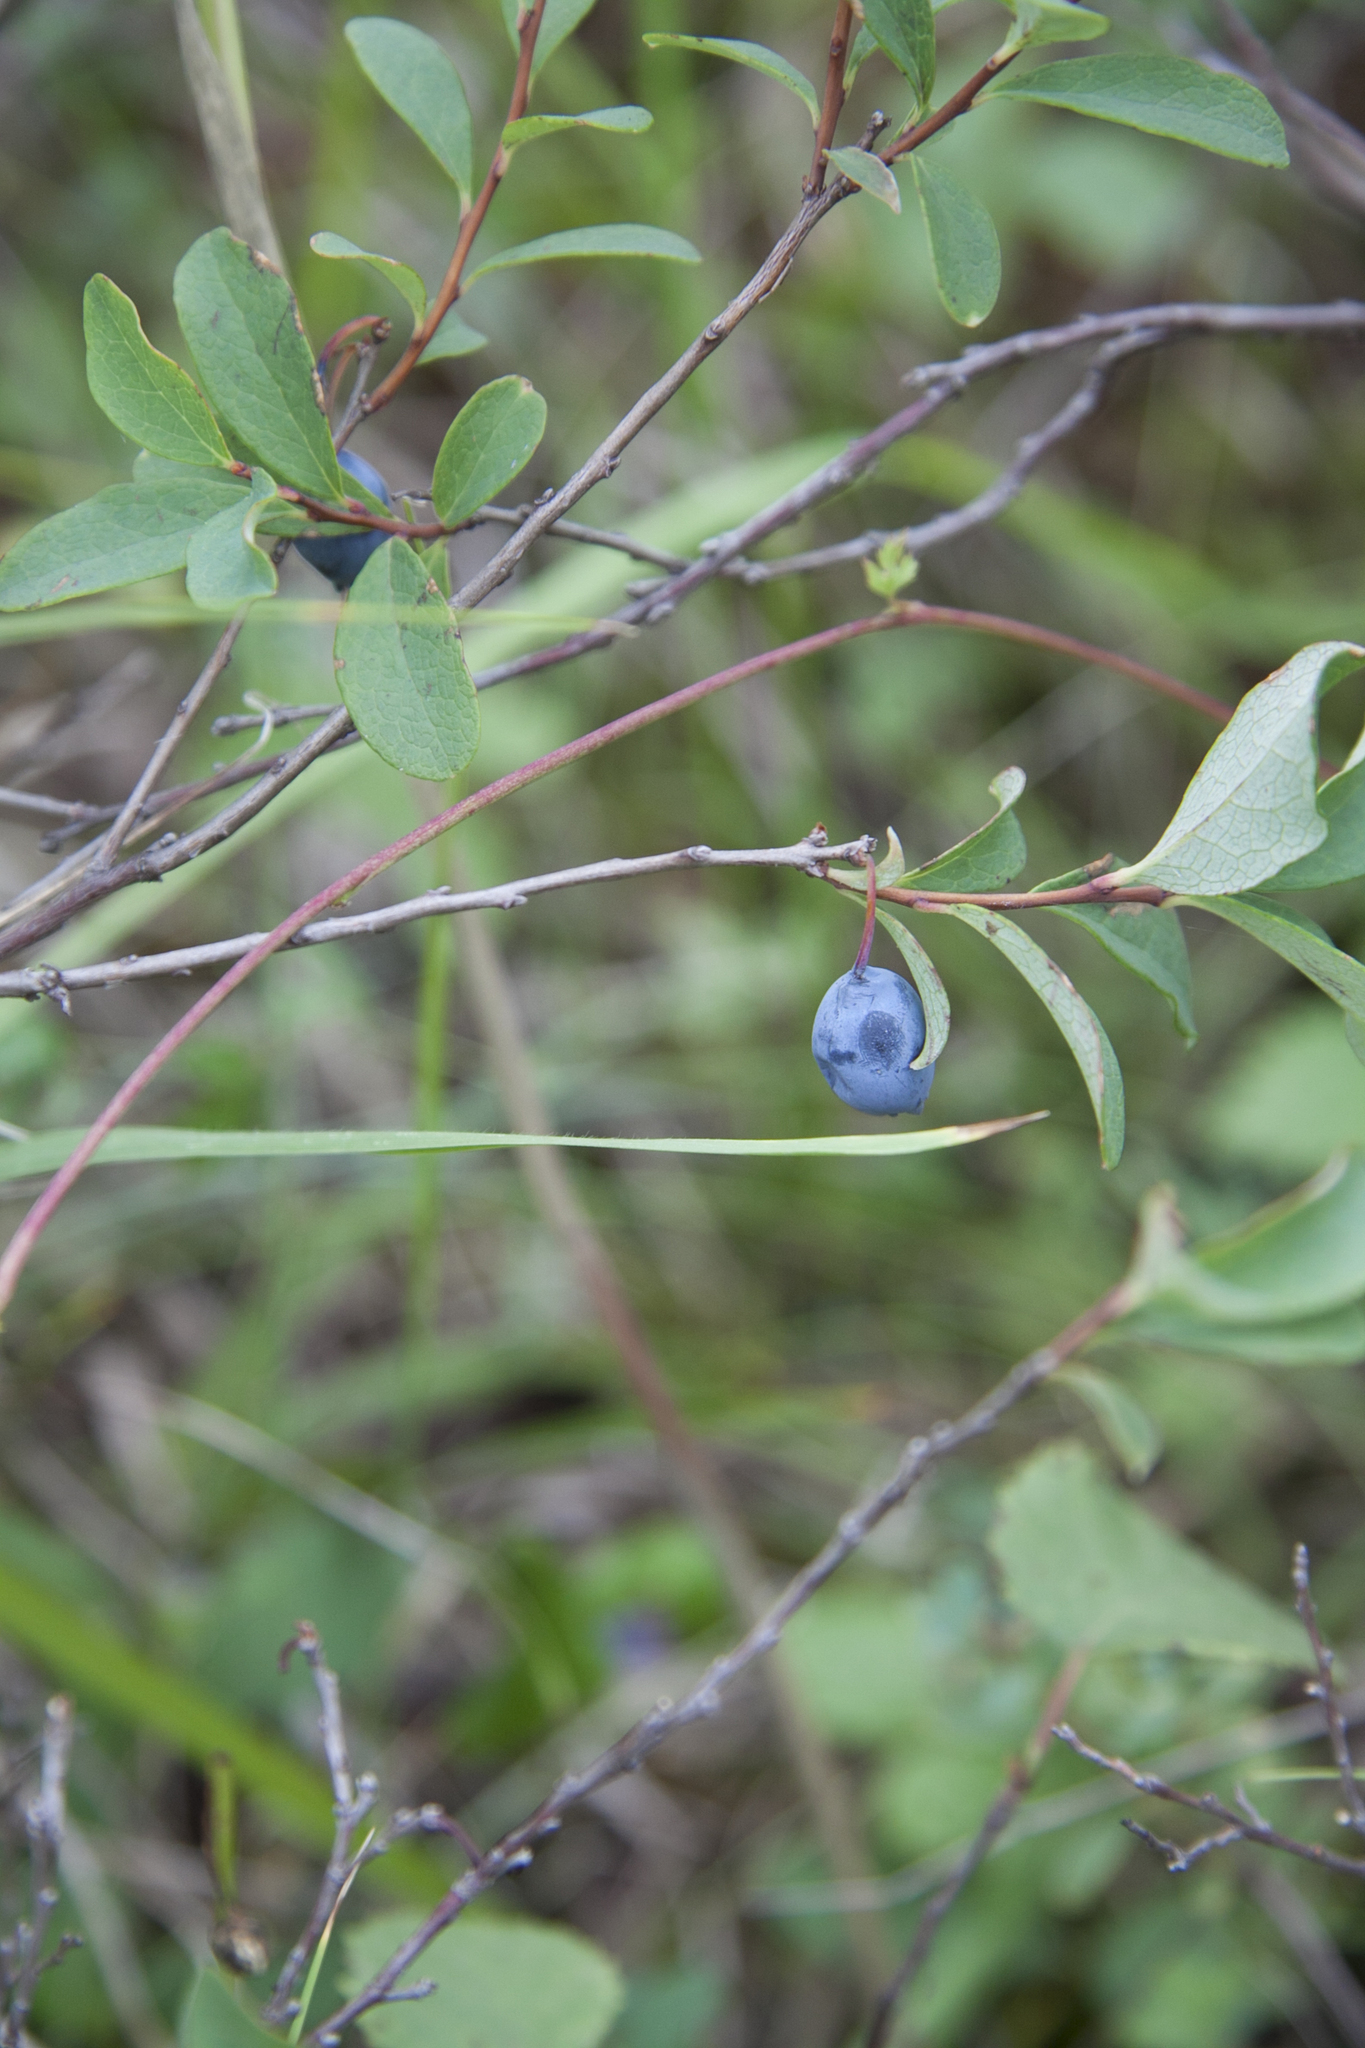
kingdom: Plantae
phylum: Tracheophyta
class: Magnoliopsida
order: Ericales
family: Ericaceae
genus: Vaccinium
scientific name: Vaccinium uliginosum
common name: Bog bilberry
